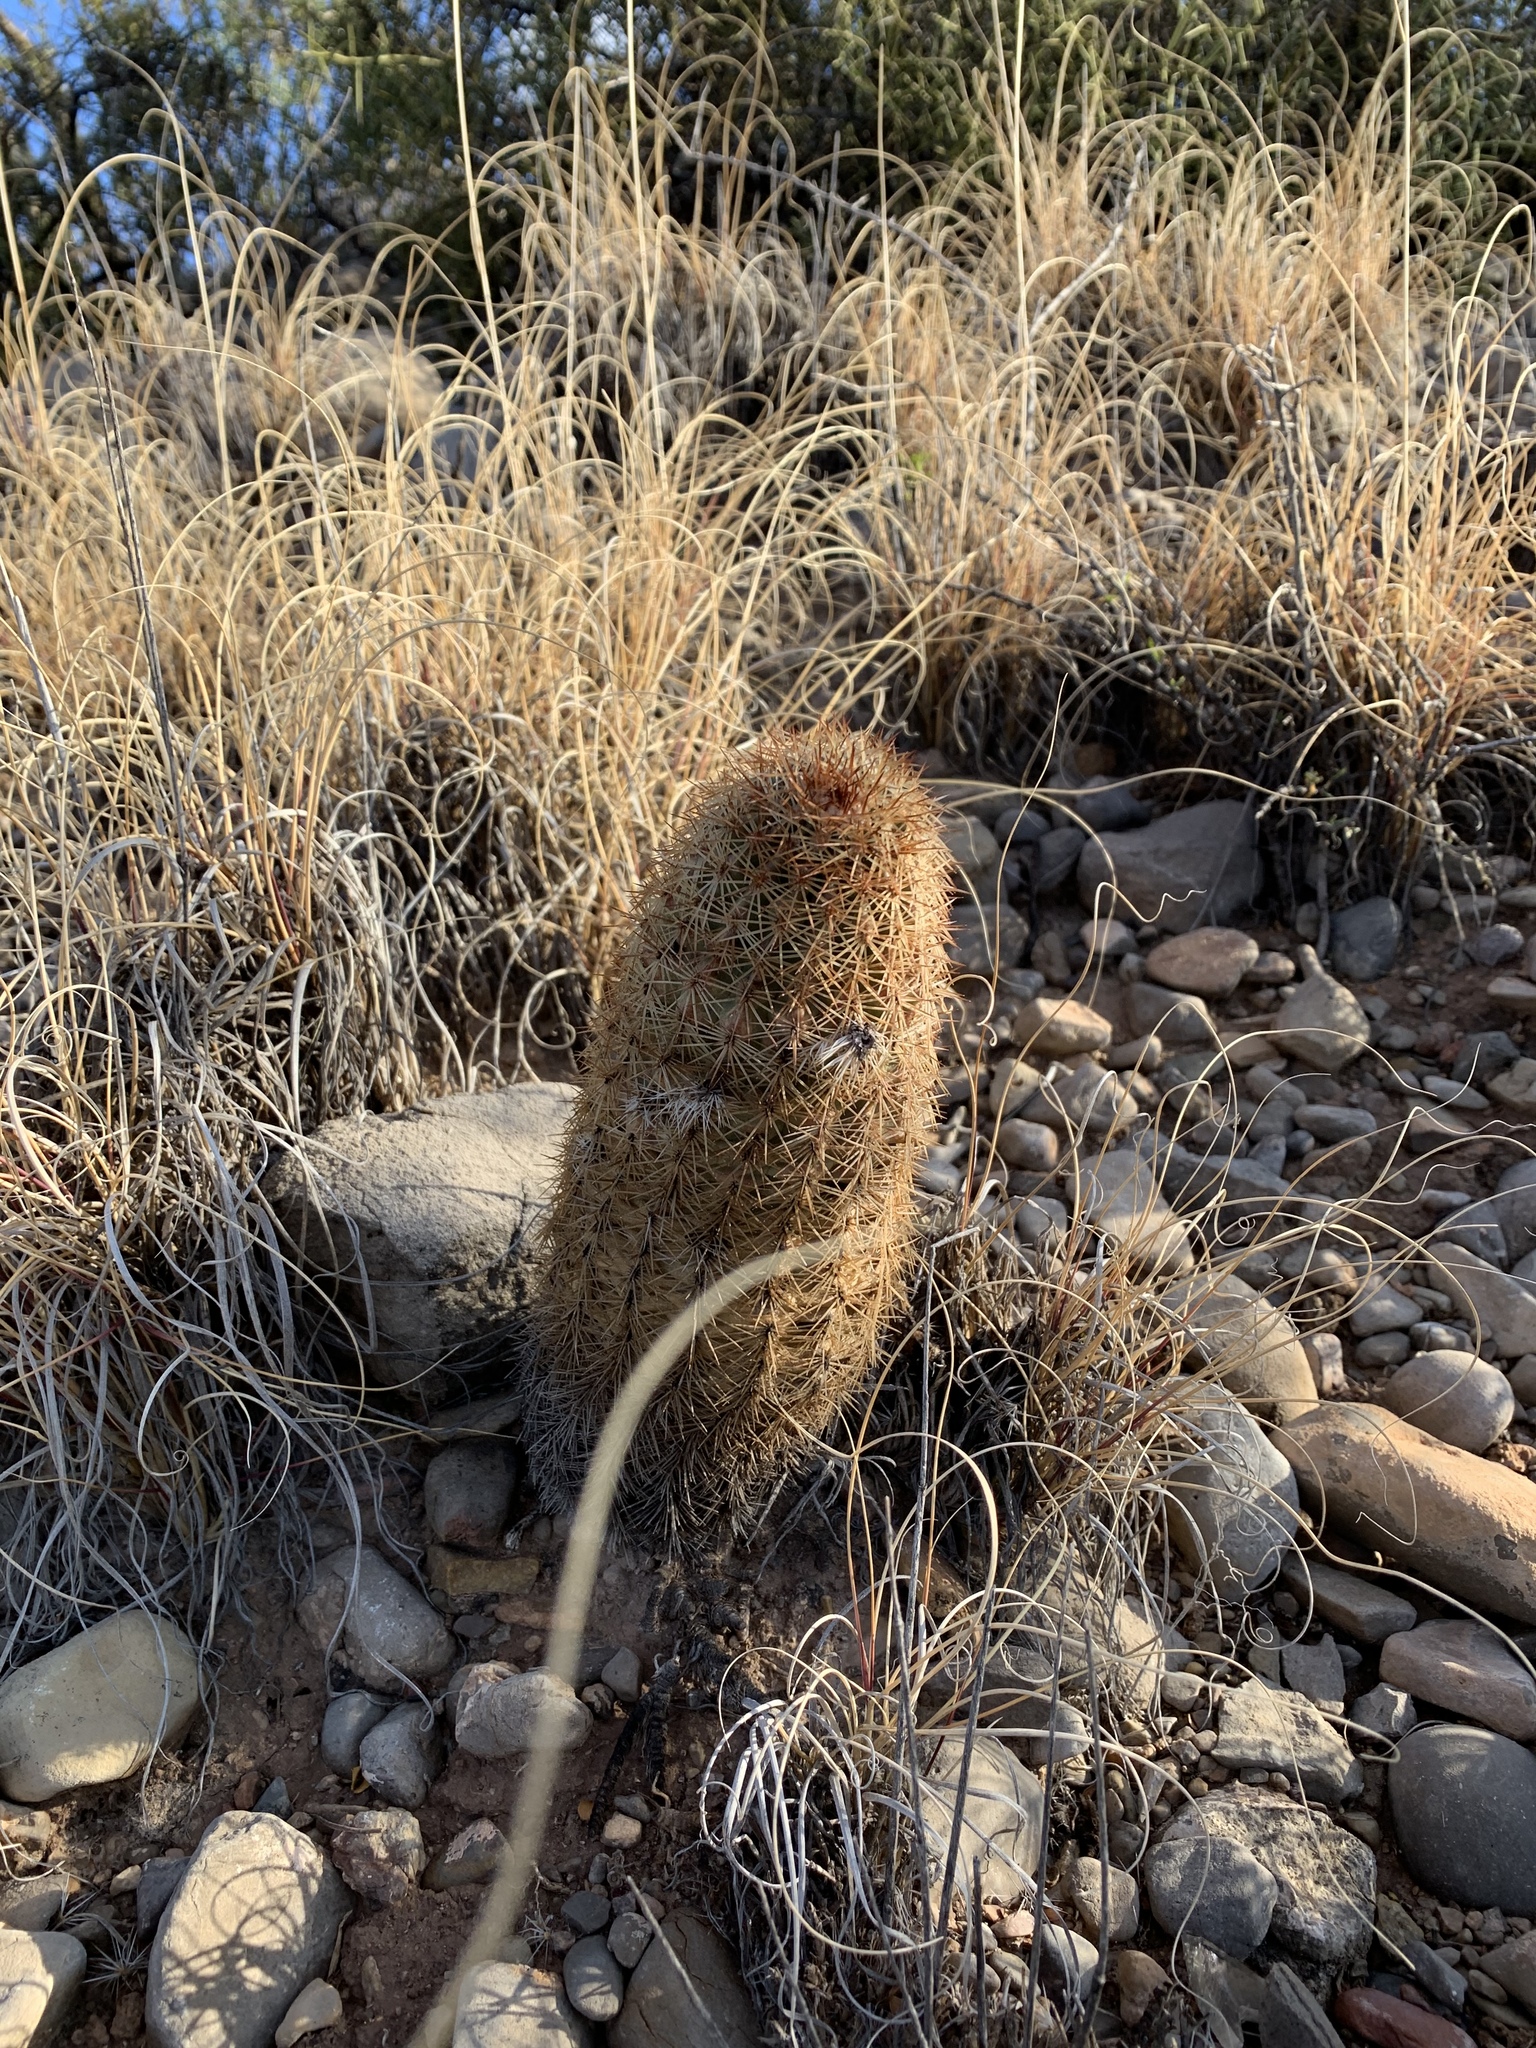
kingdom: Plantae
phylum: Tracheophyta
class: Magnoliopsida
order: Caryophyllales
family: Cactaceae
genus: Echinocereus
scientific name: Echinocereus dasyacanthus
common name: Spiny hedgehog cactus
